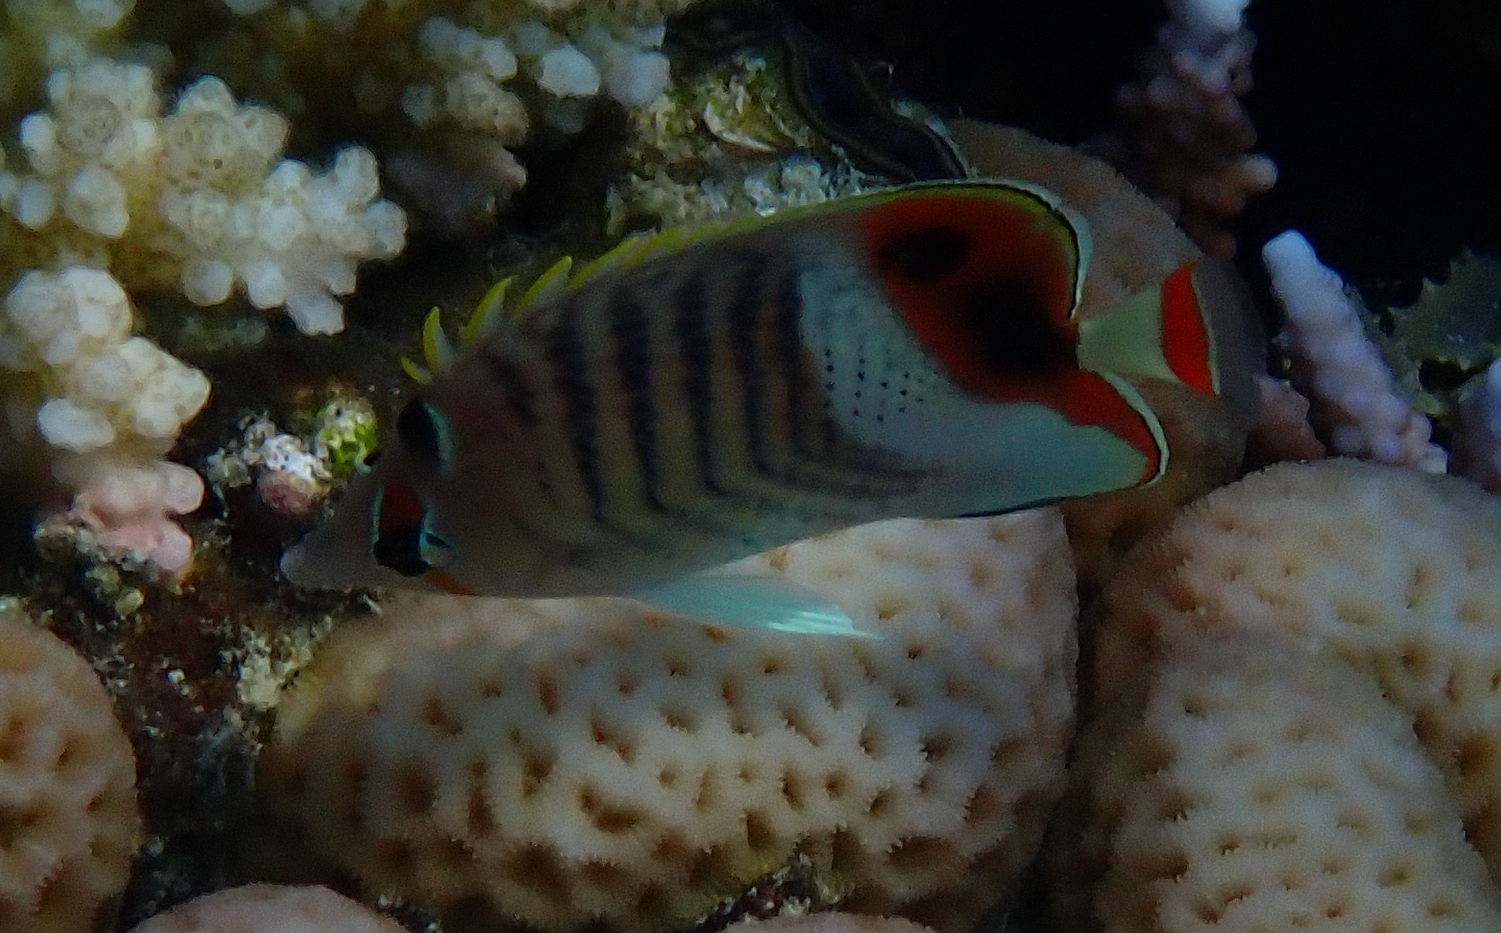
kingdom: Animalia
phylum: Chordata
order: Perciformes
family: Chaetodontidae
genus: Chaetodon
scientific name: Chaetodon paucifasciatus
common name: Crown butterflyfish
